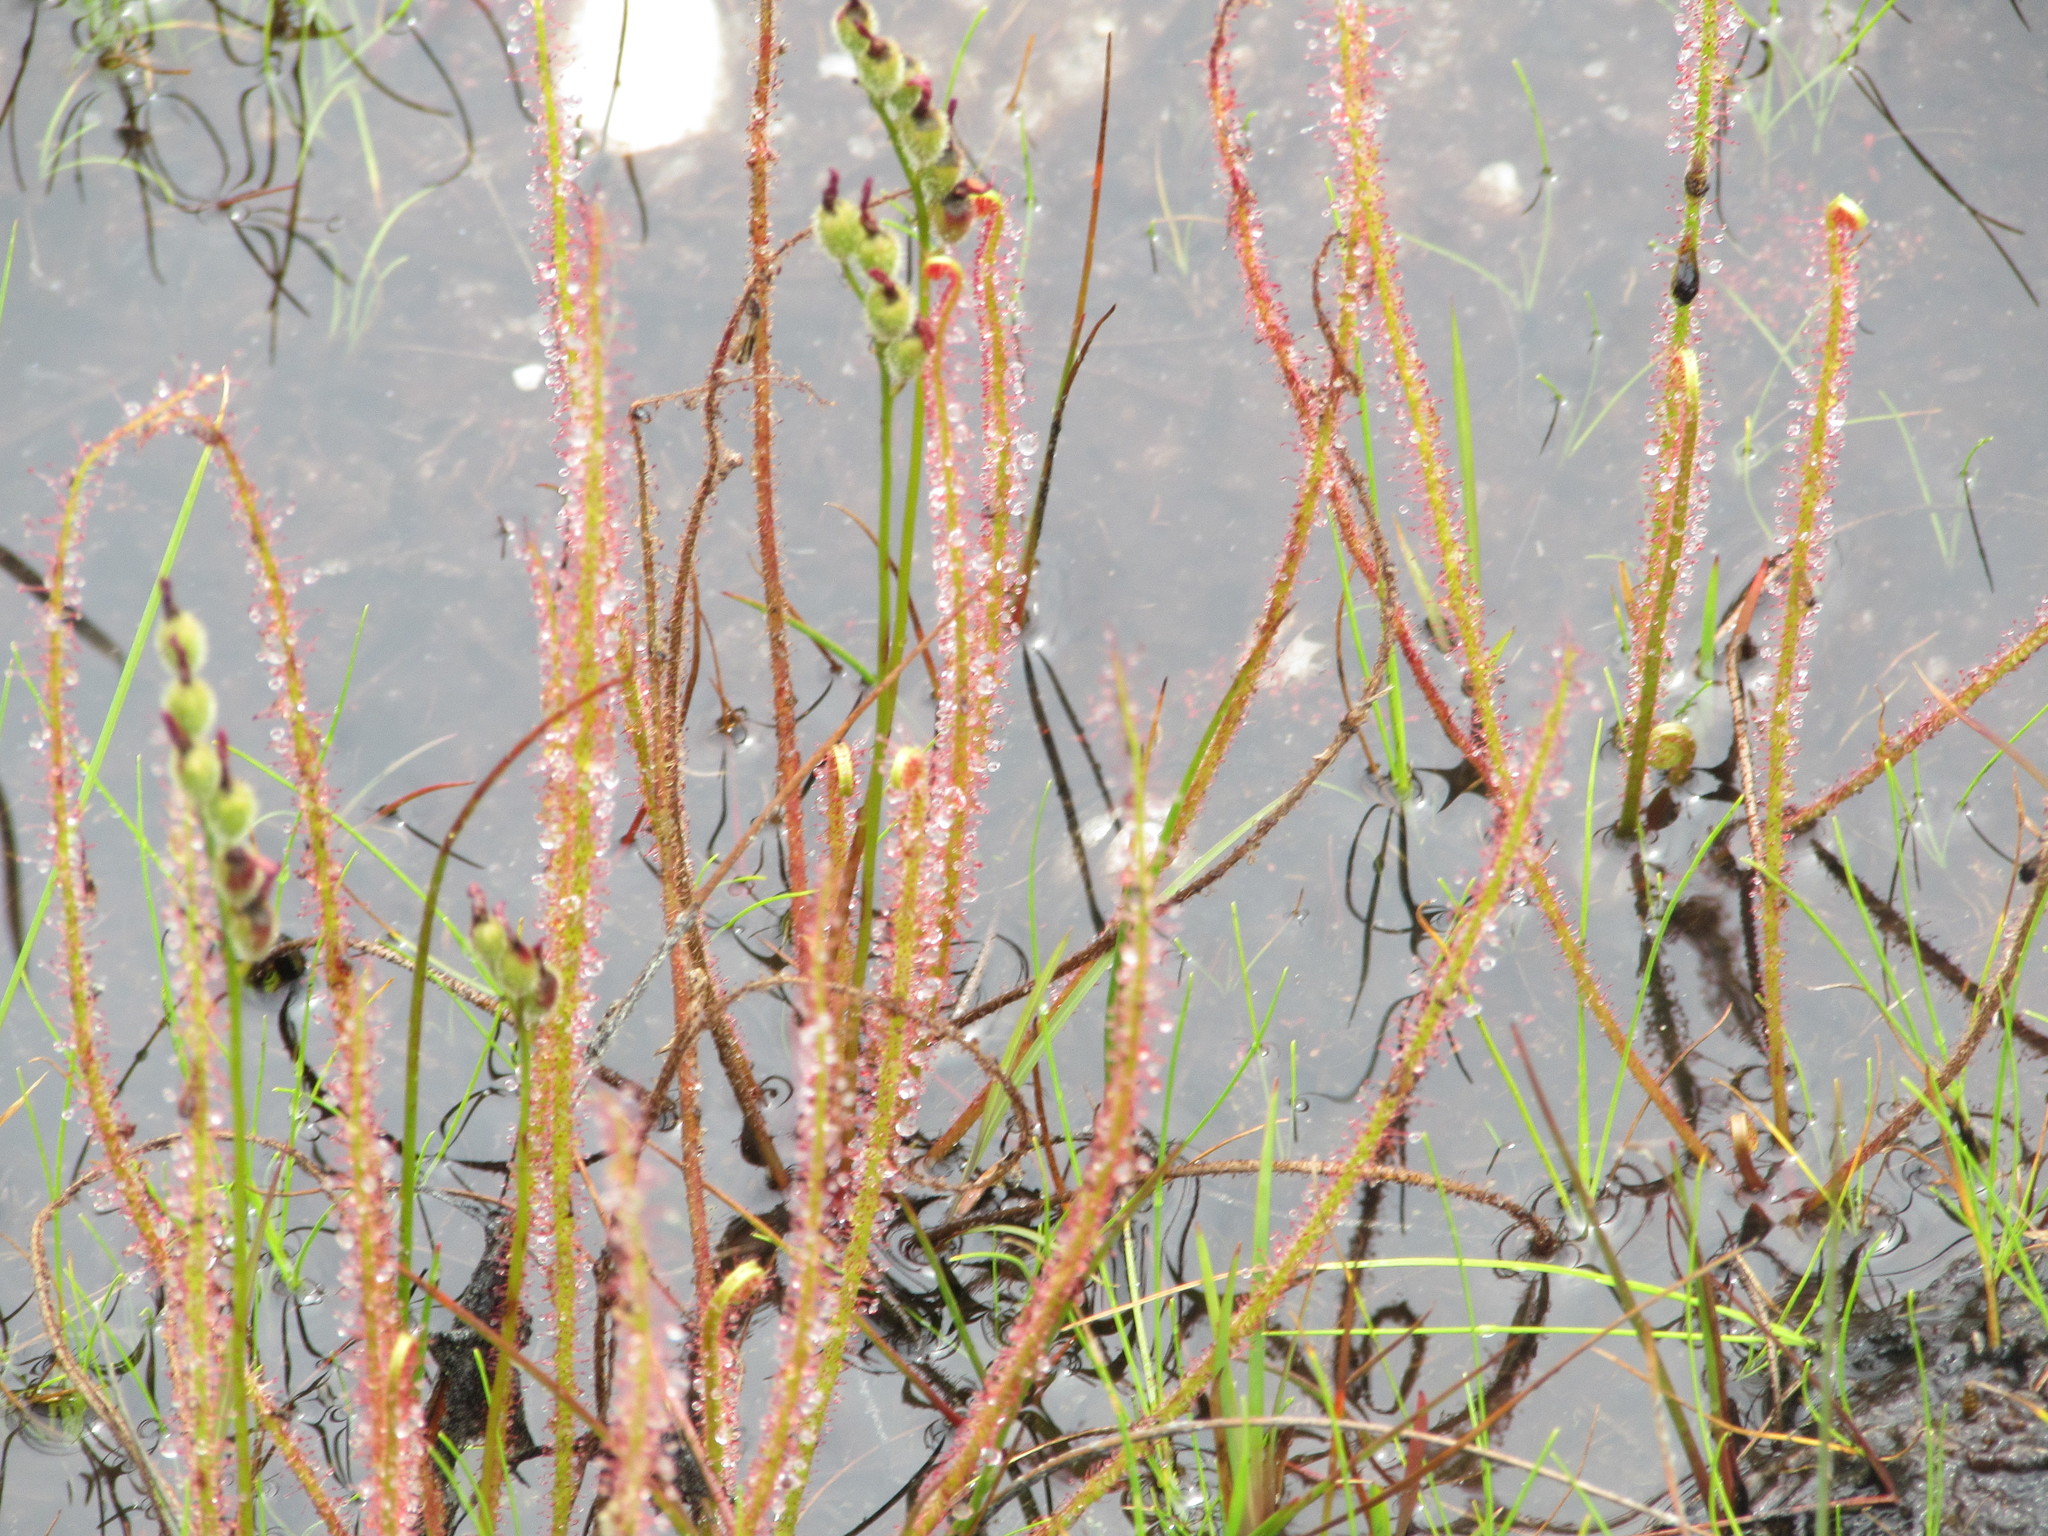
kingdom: Plantae
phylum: Tracheophyta
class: Magnoliopsida
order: Caryophyllales
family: Droseraceae
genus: Drosera
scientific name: Drosera filiformis
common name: Dew-thread
